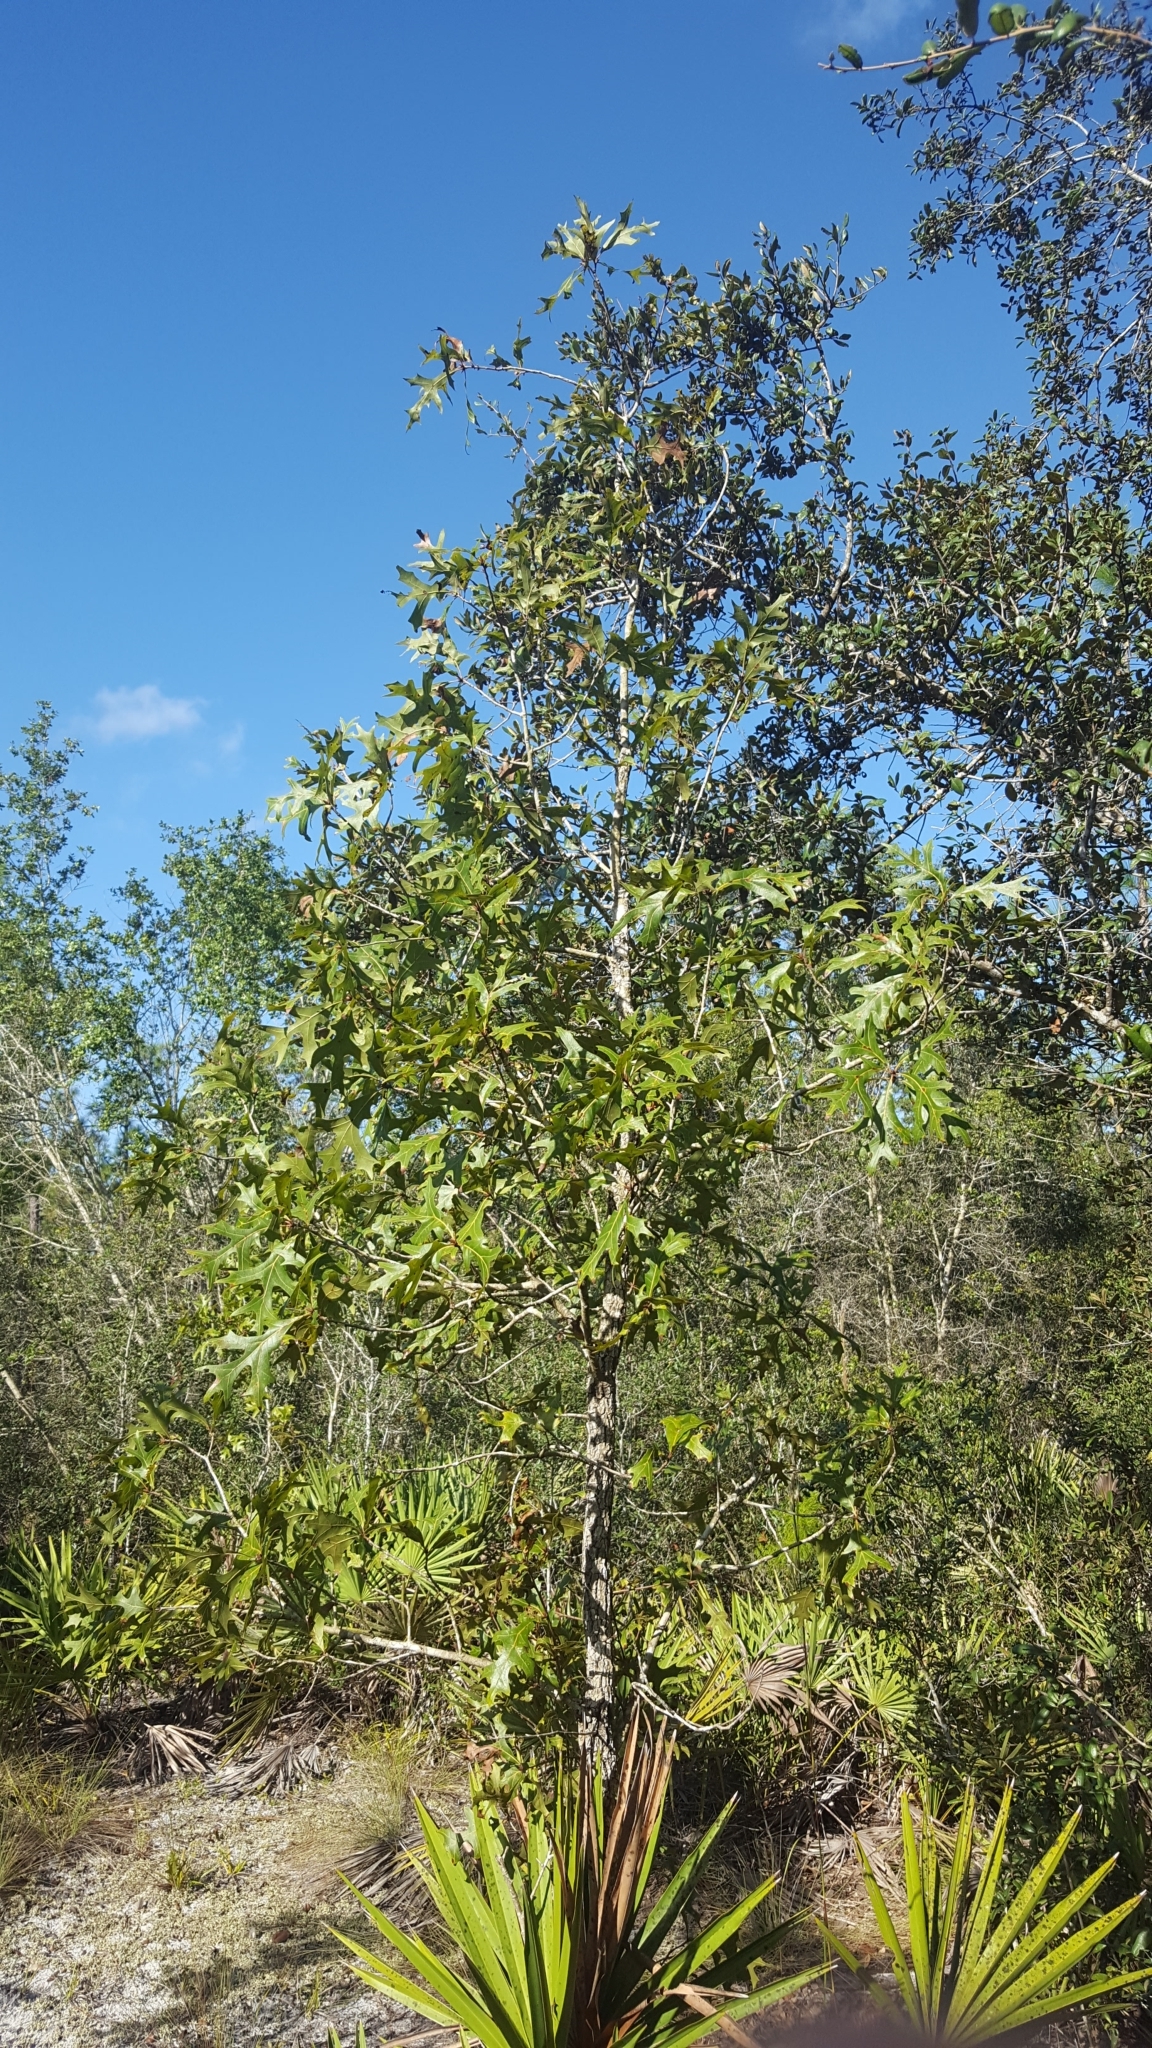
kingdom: Plantae
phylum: Tracheophyta
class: Magnoliopsida
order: Fagales
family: Fagaceae
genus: Quercus
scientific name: Quercus laevis
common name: Turkey oak
